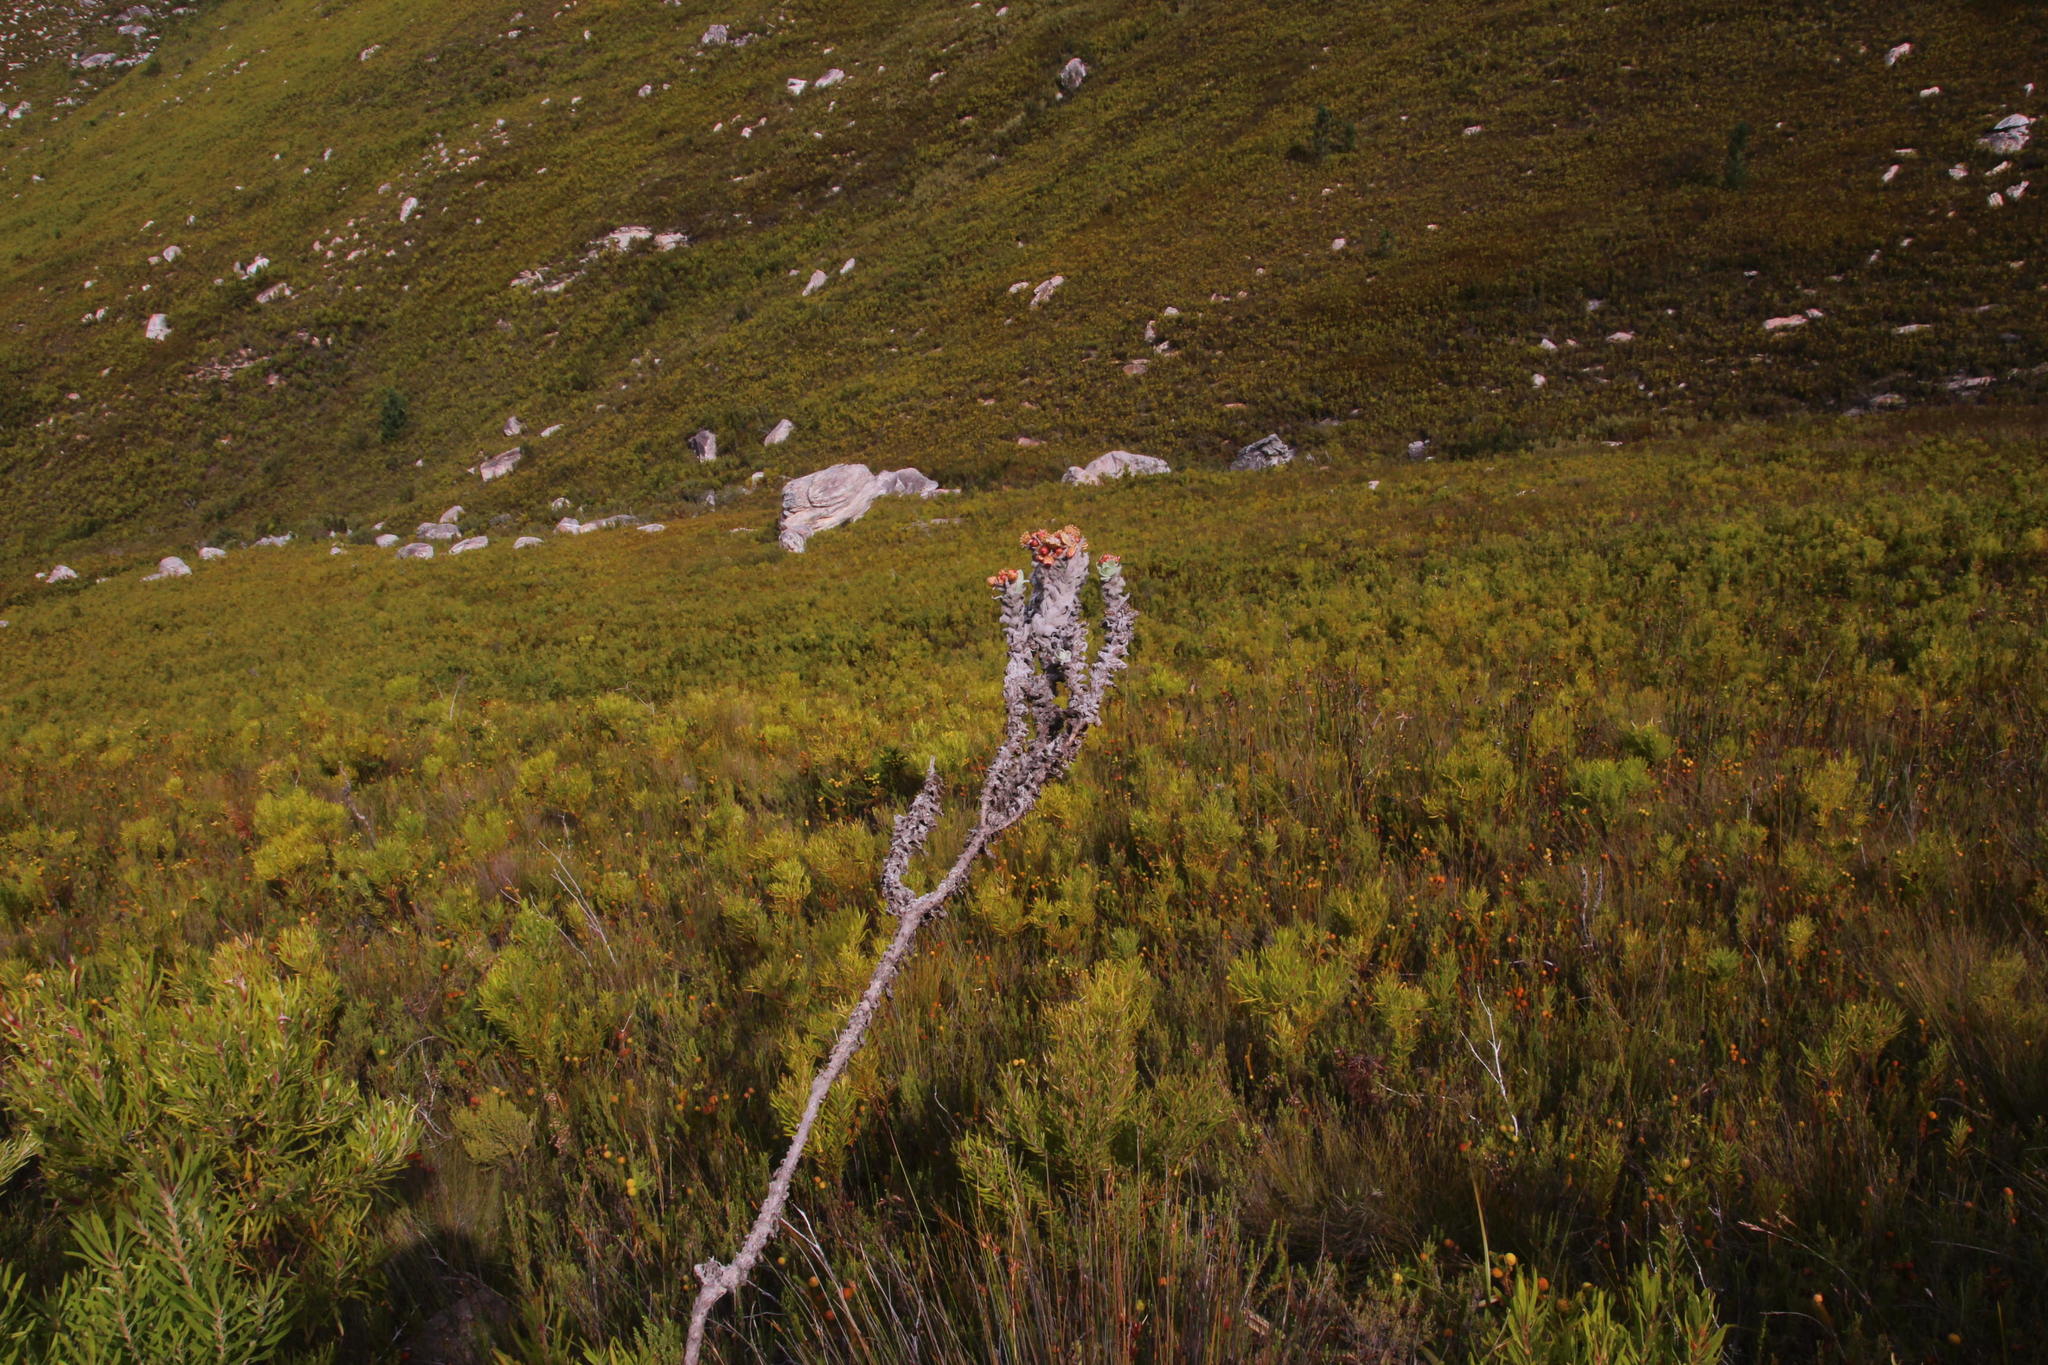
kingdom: Plantae
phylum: Tracheophyta
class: Magnoliopsida
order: Asterales
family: Asteraceae
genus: Syncarpha
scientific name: Syncarpha eximia
